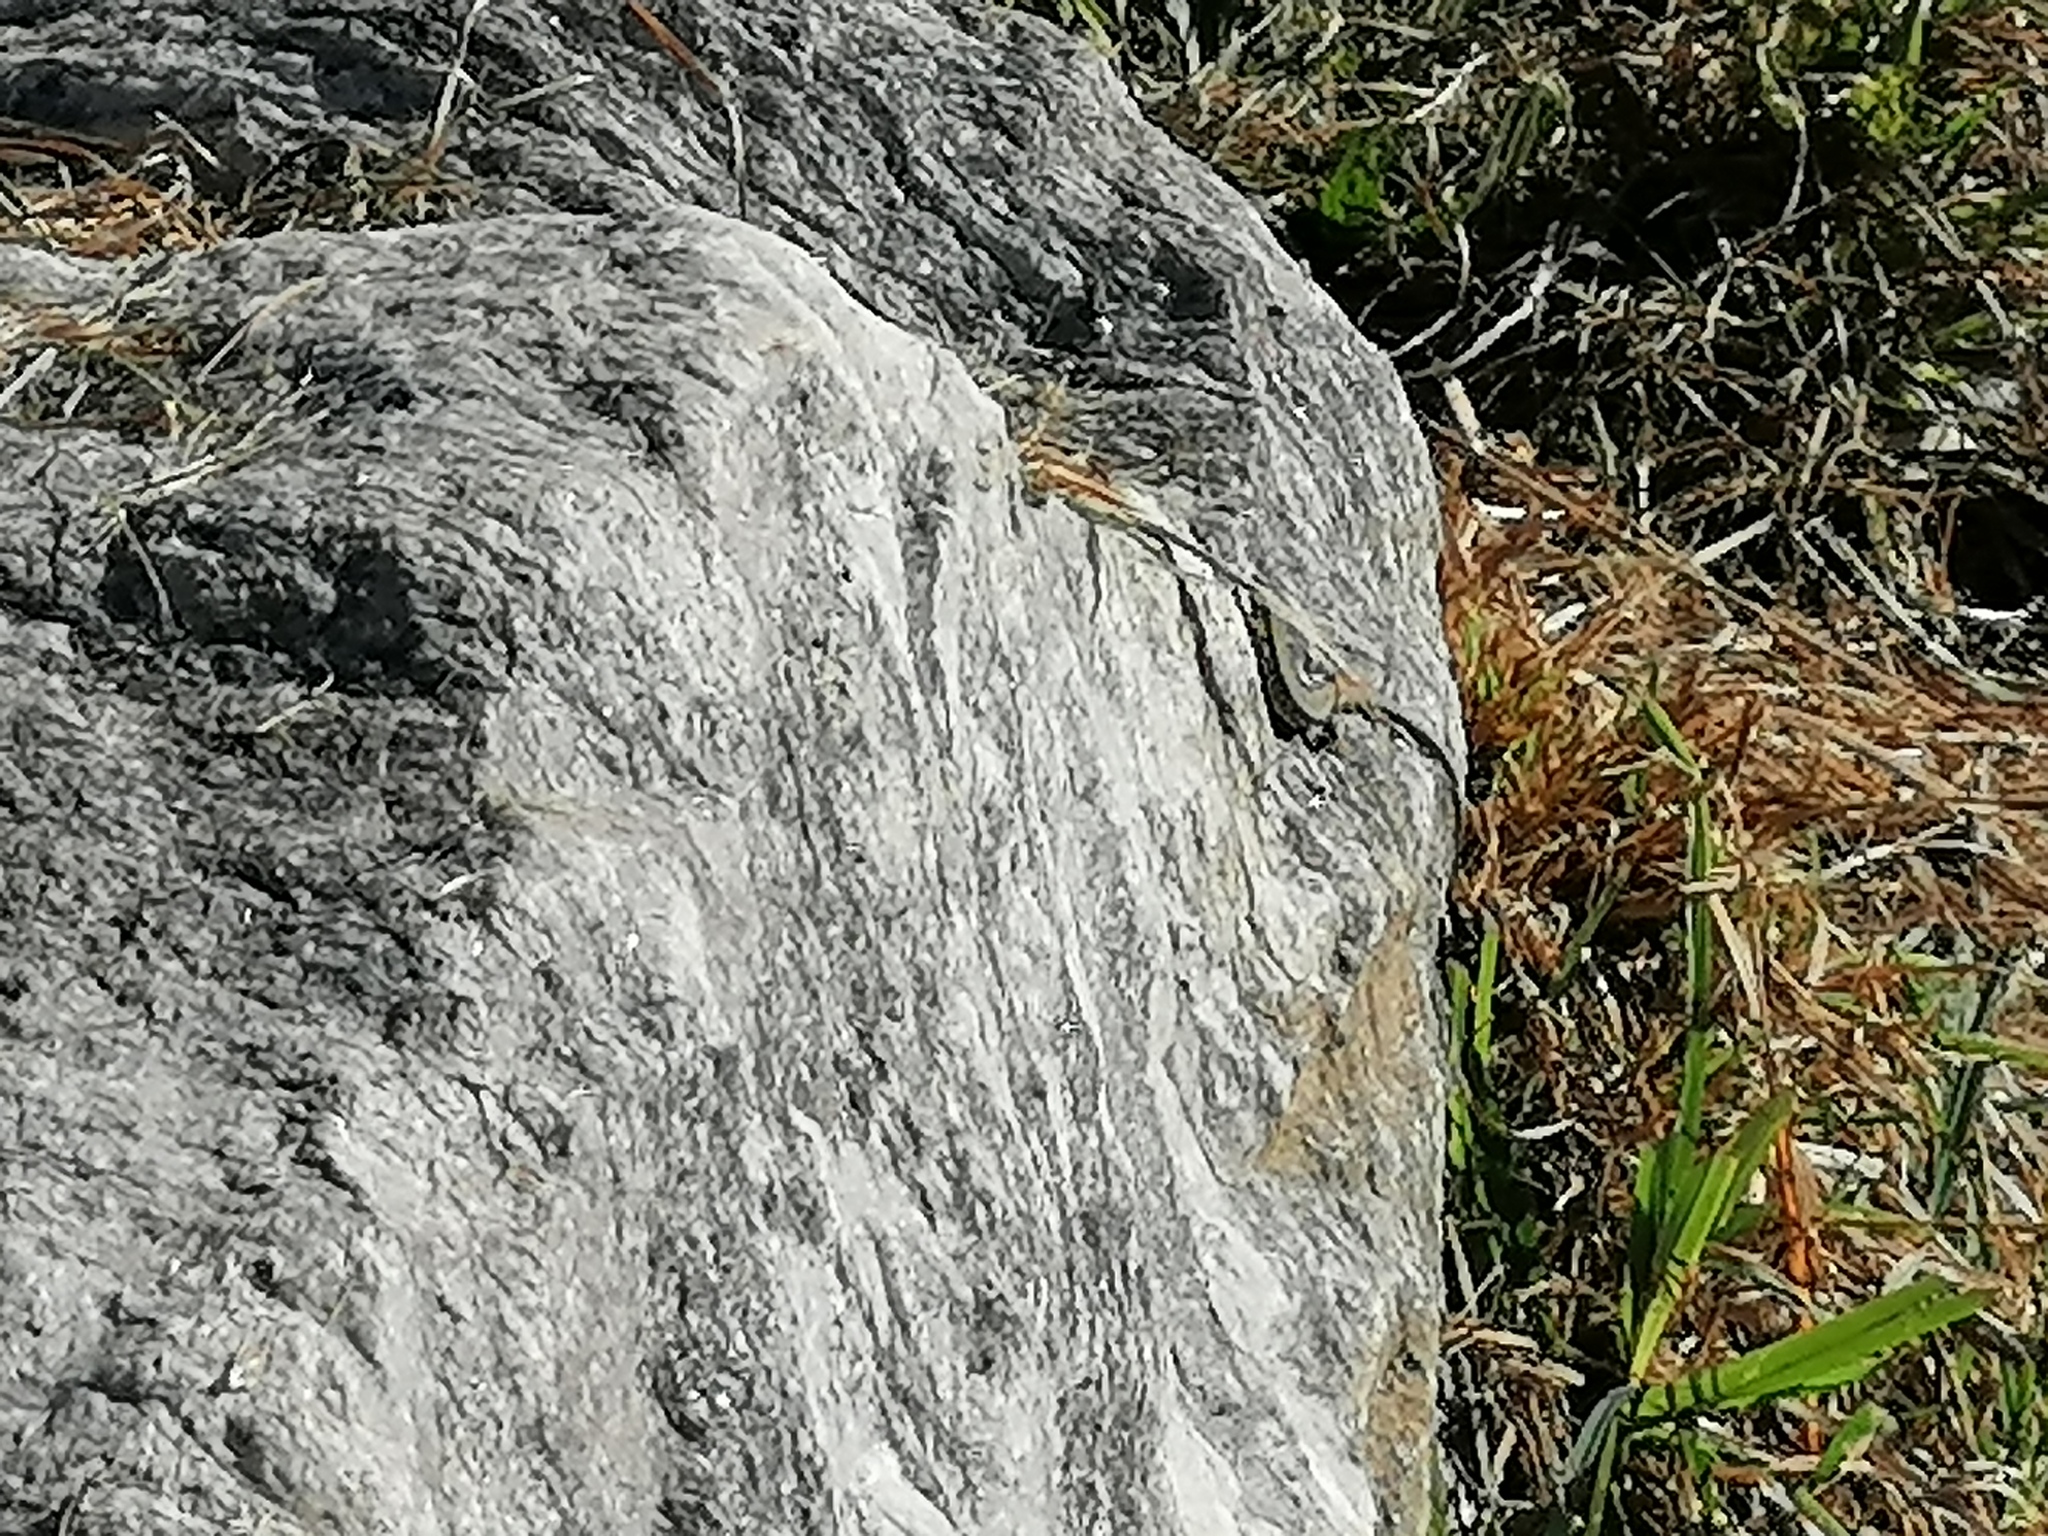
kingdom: Animalia
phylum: Chordata
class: Squamata
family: Lacertidae
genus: Podarcis
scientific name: Podarcis muralis
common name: Common wall lizard
